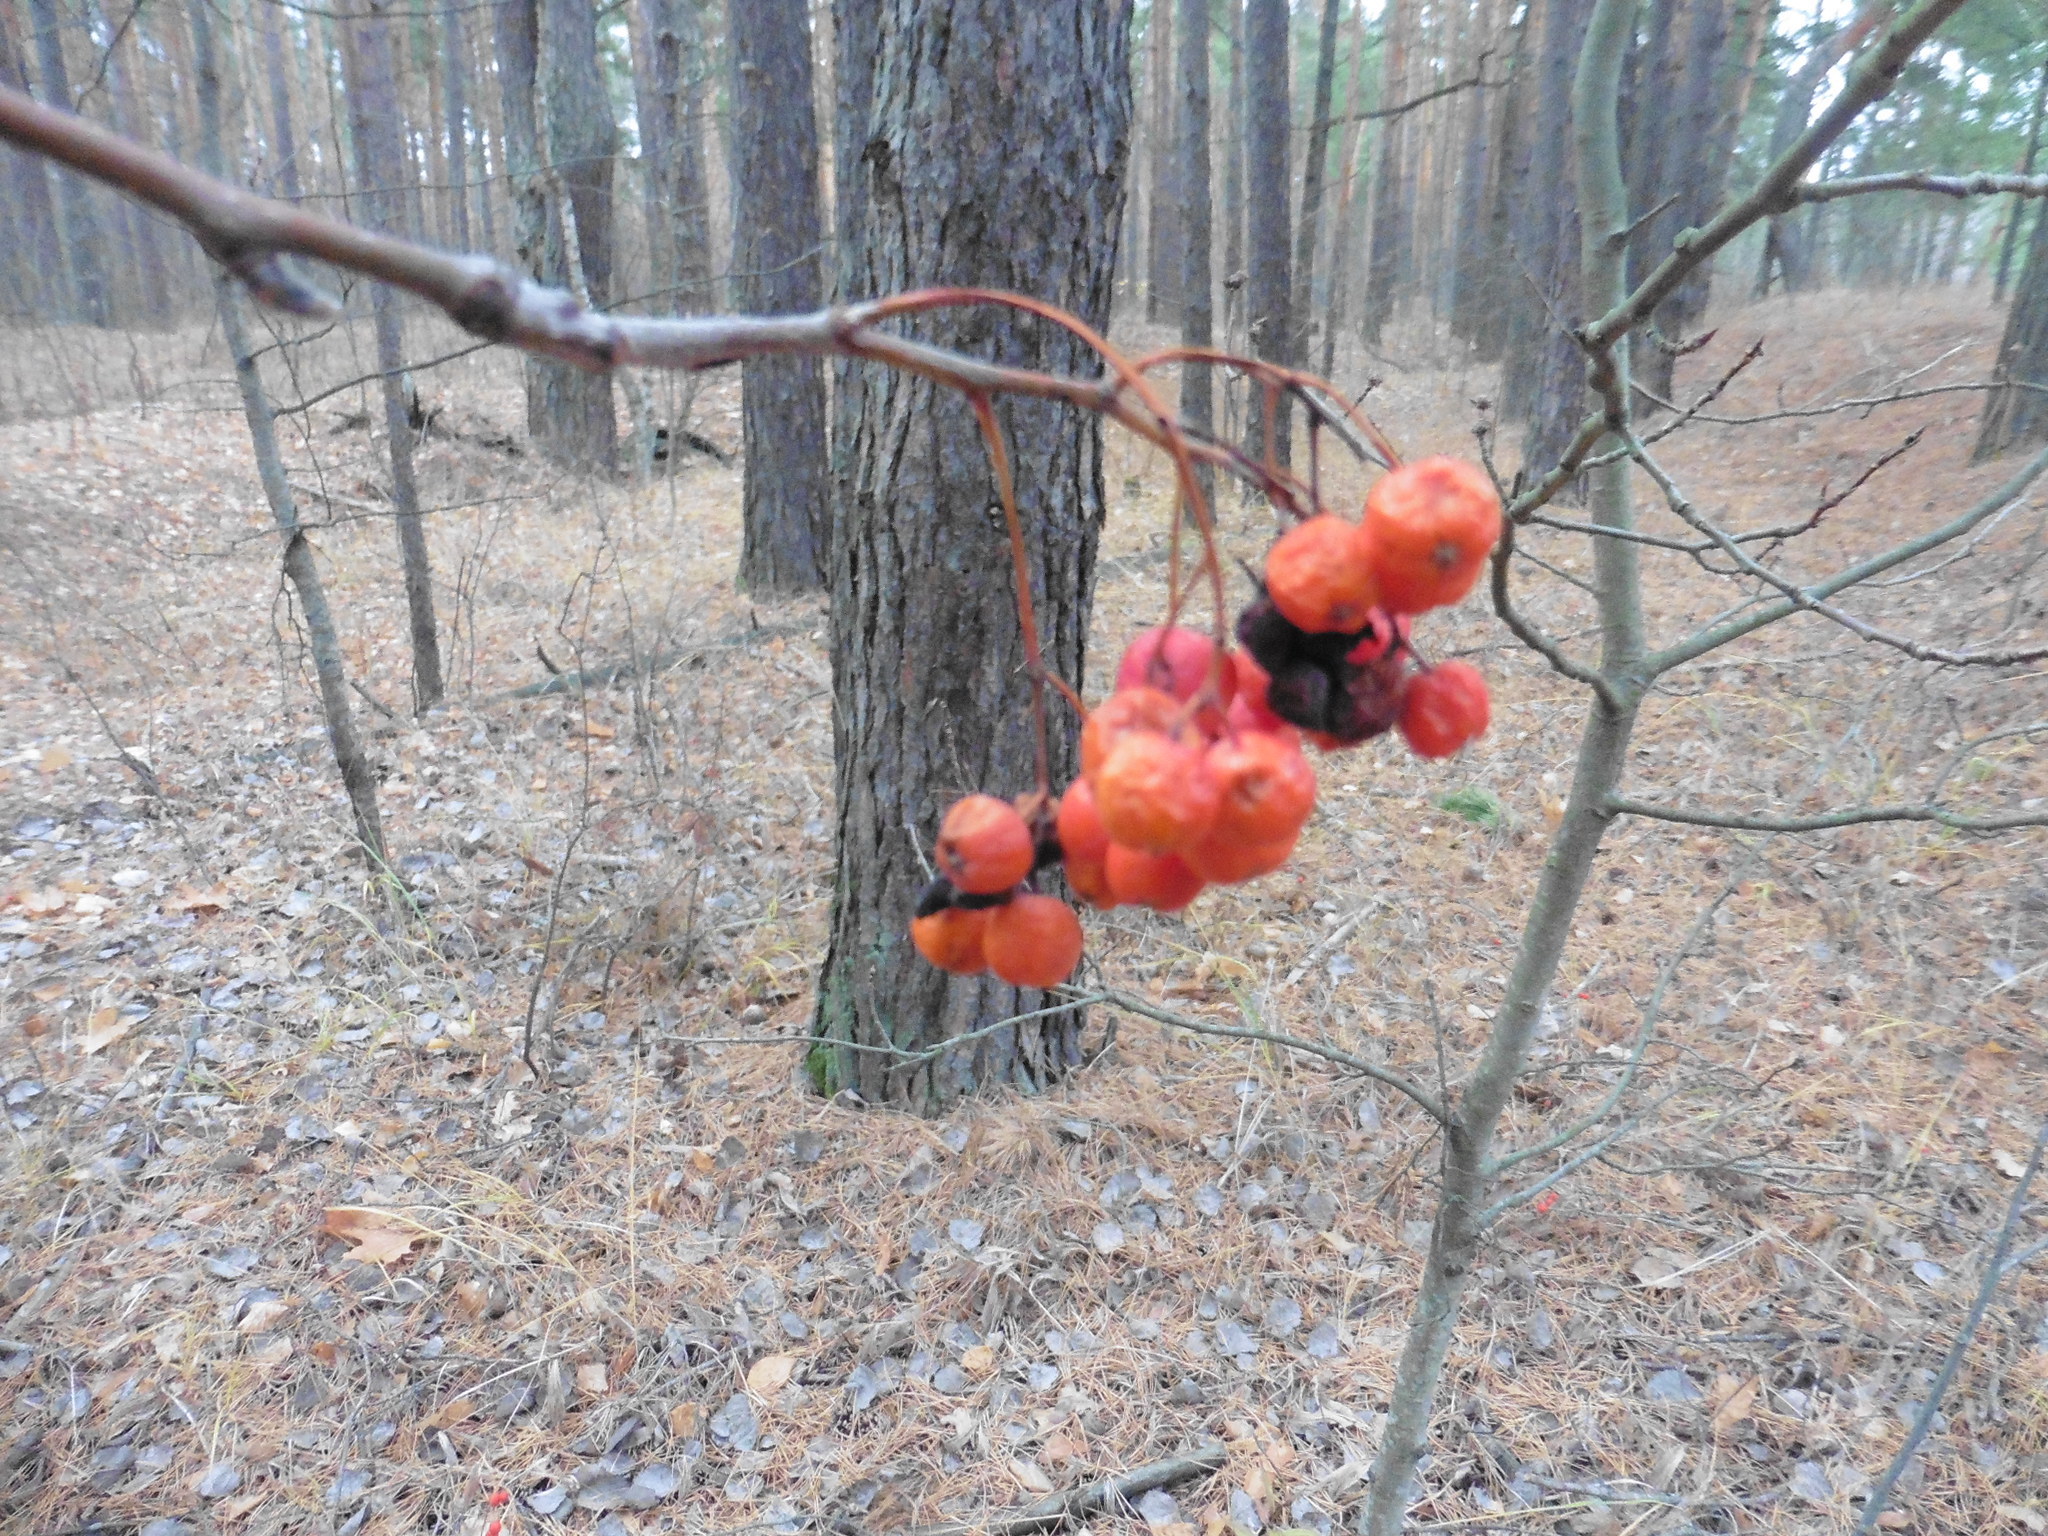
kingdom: Plantae
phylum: Tracheophyta
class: Magnoliopsida
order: Rosales
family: Rosaceae
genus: Sorbus
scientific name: Sorbus aucuparia
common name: Rowan
